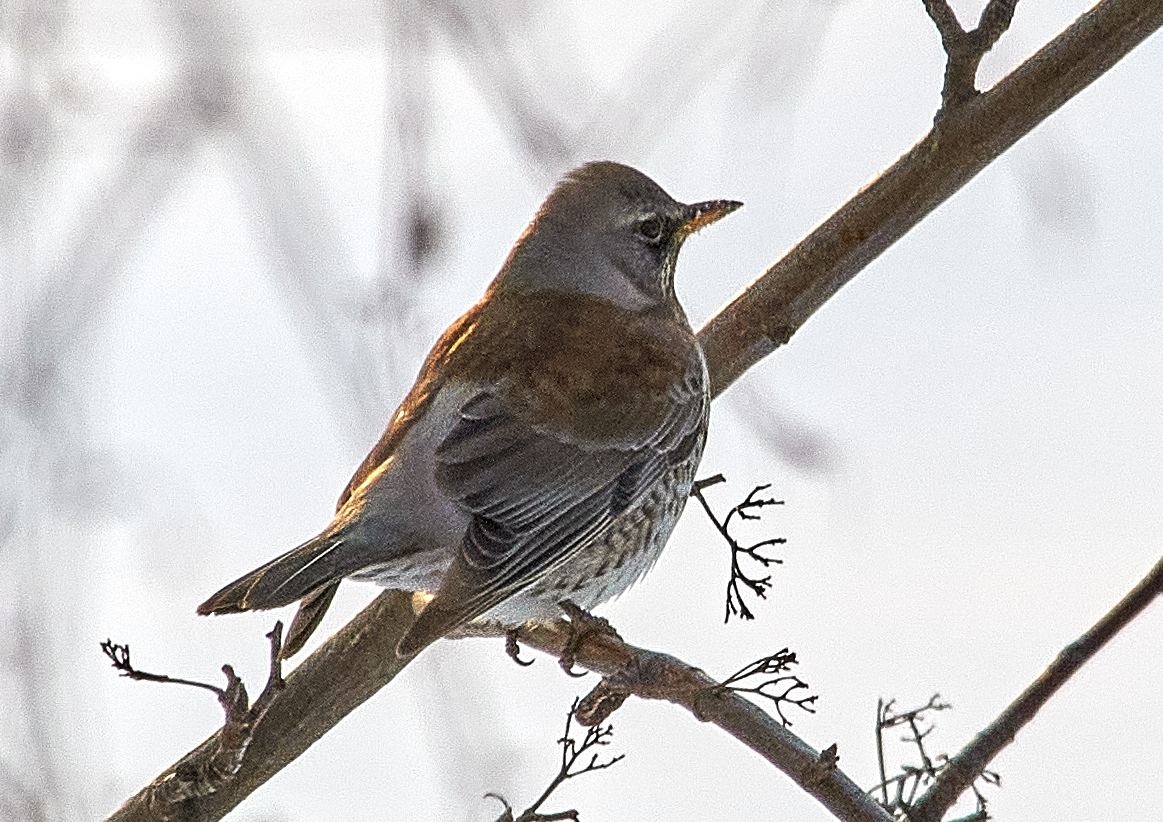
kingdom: Animalia
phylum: Chordata
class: Aves
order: Passeriformes
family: Turdidae
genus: Turdus
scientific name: Turdus pilaris
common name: Fieldfare
